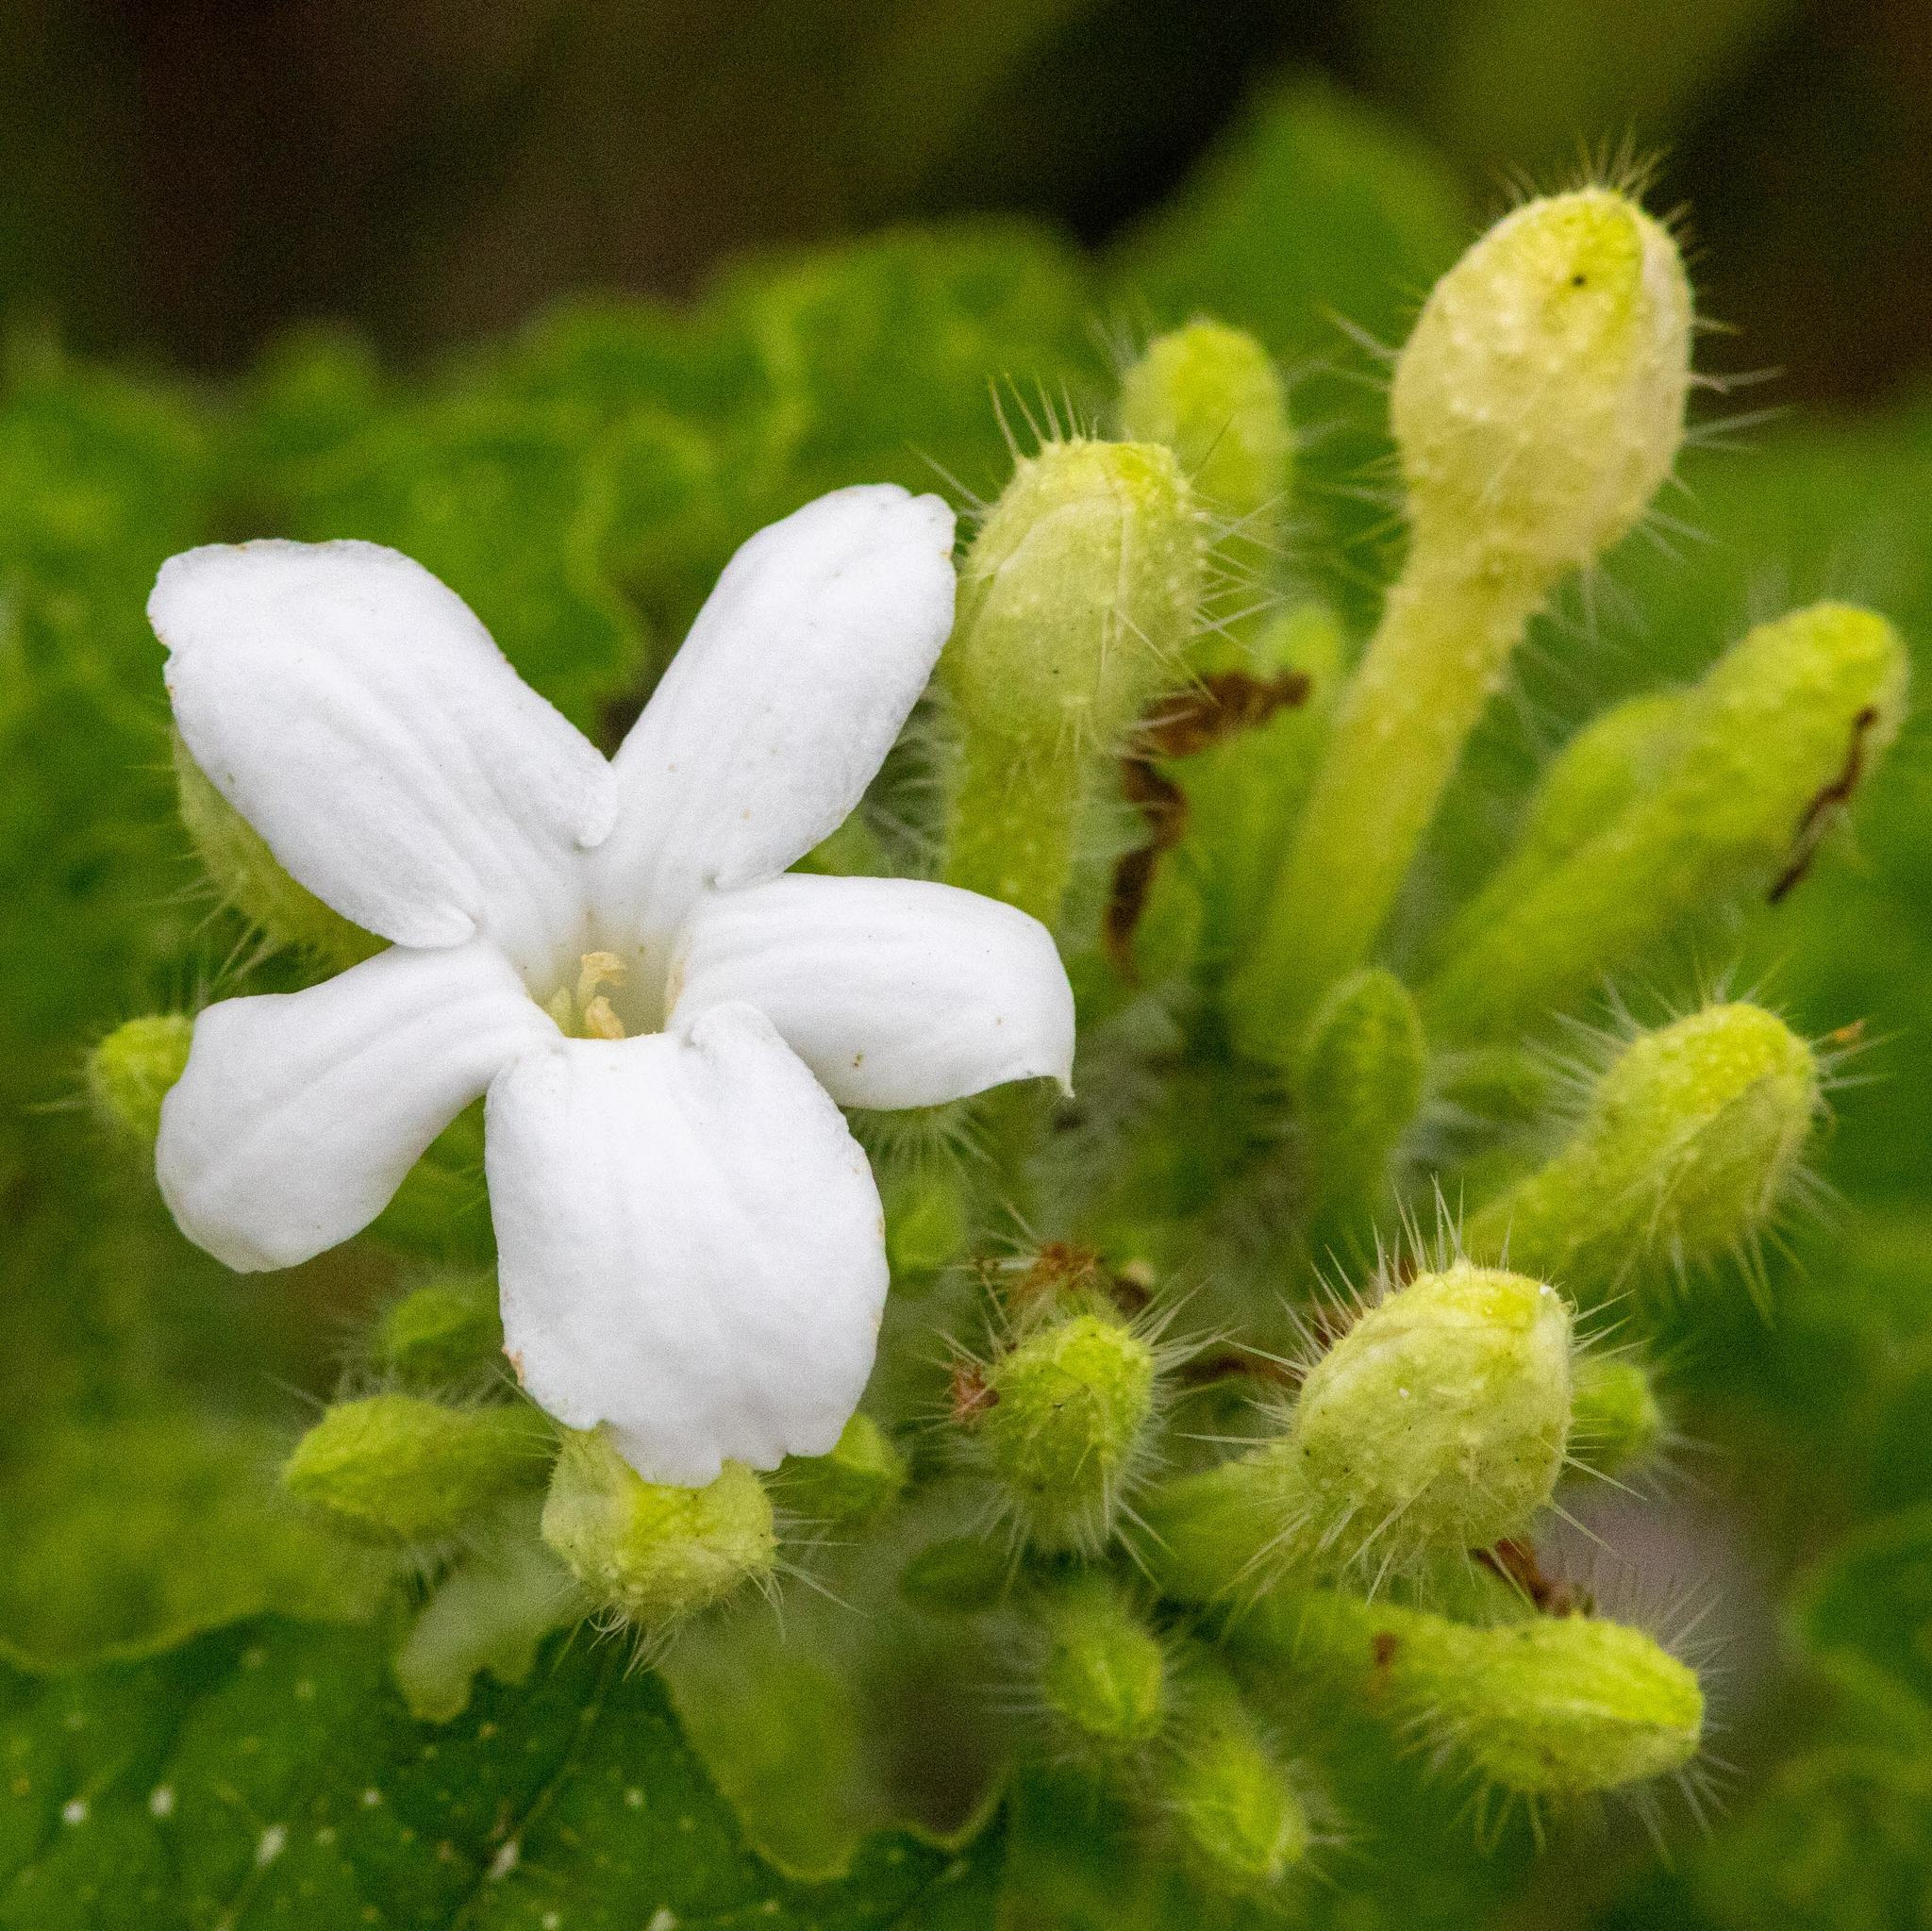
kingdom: Plantae
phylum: Tracheophyta
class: Magnoliopsida
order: Malpighiales
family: Euphorbiaceae
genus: Cnidoscolus
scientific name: Cnidoscolus texanus
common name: Texas bull-nettle
